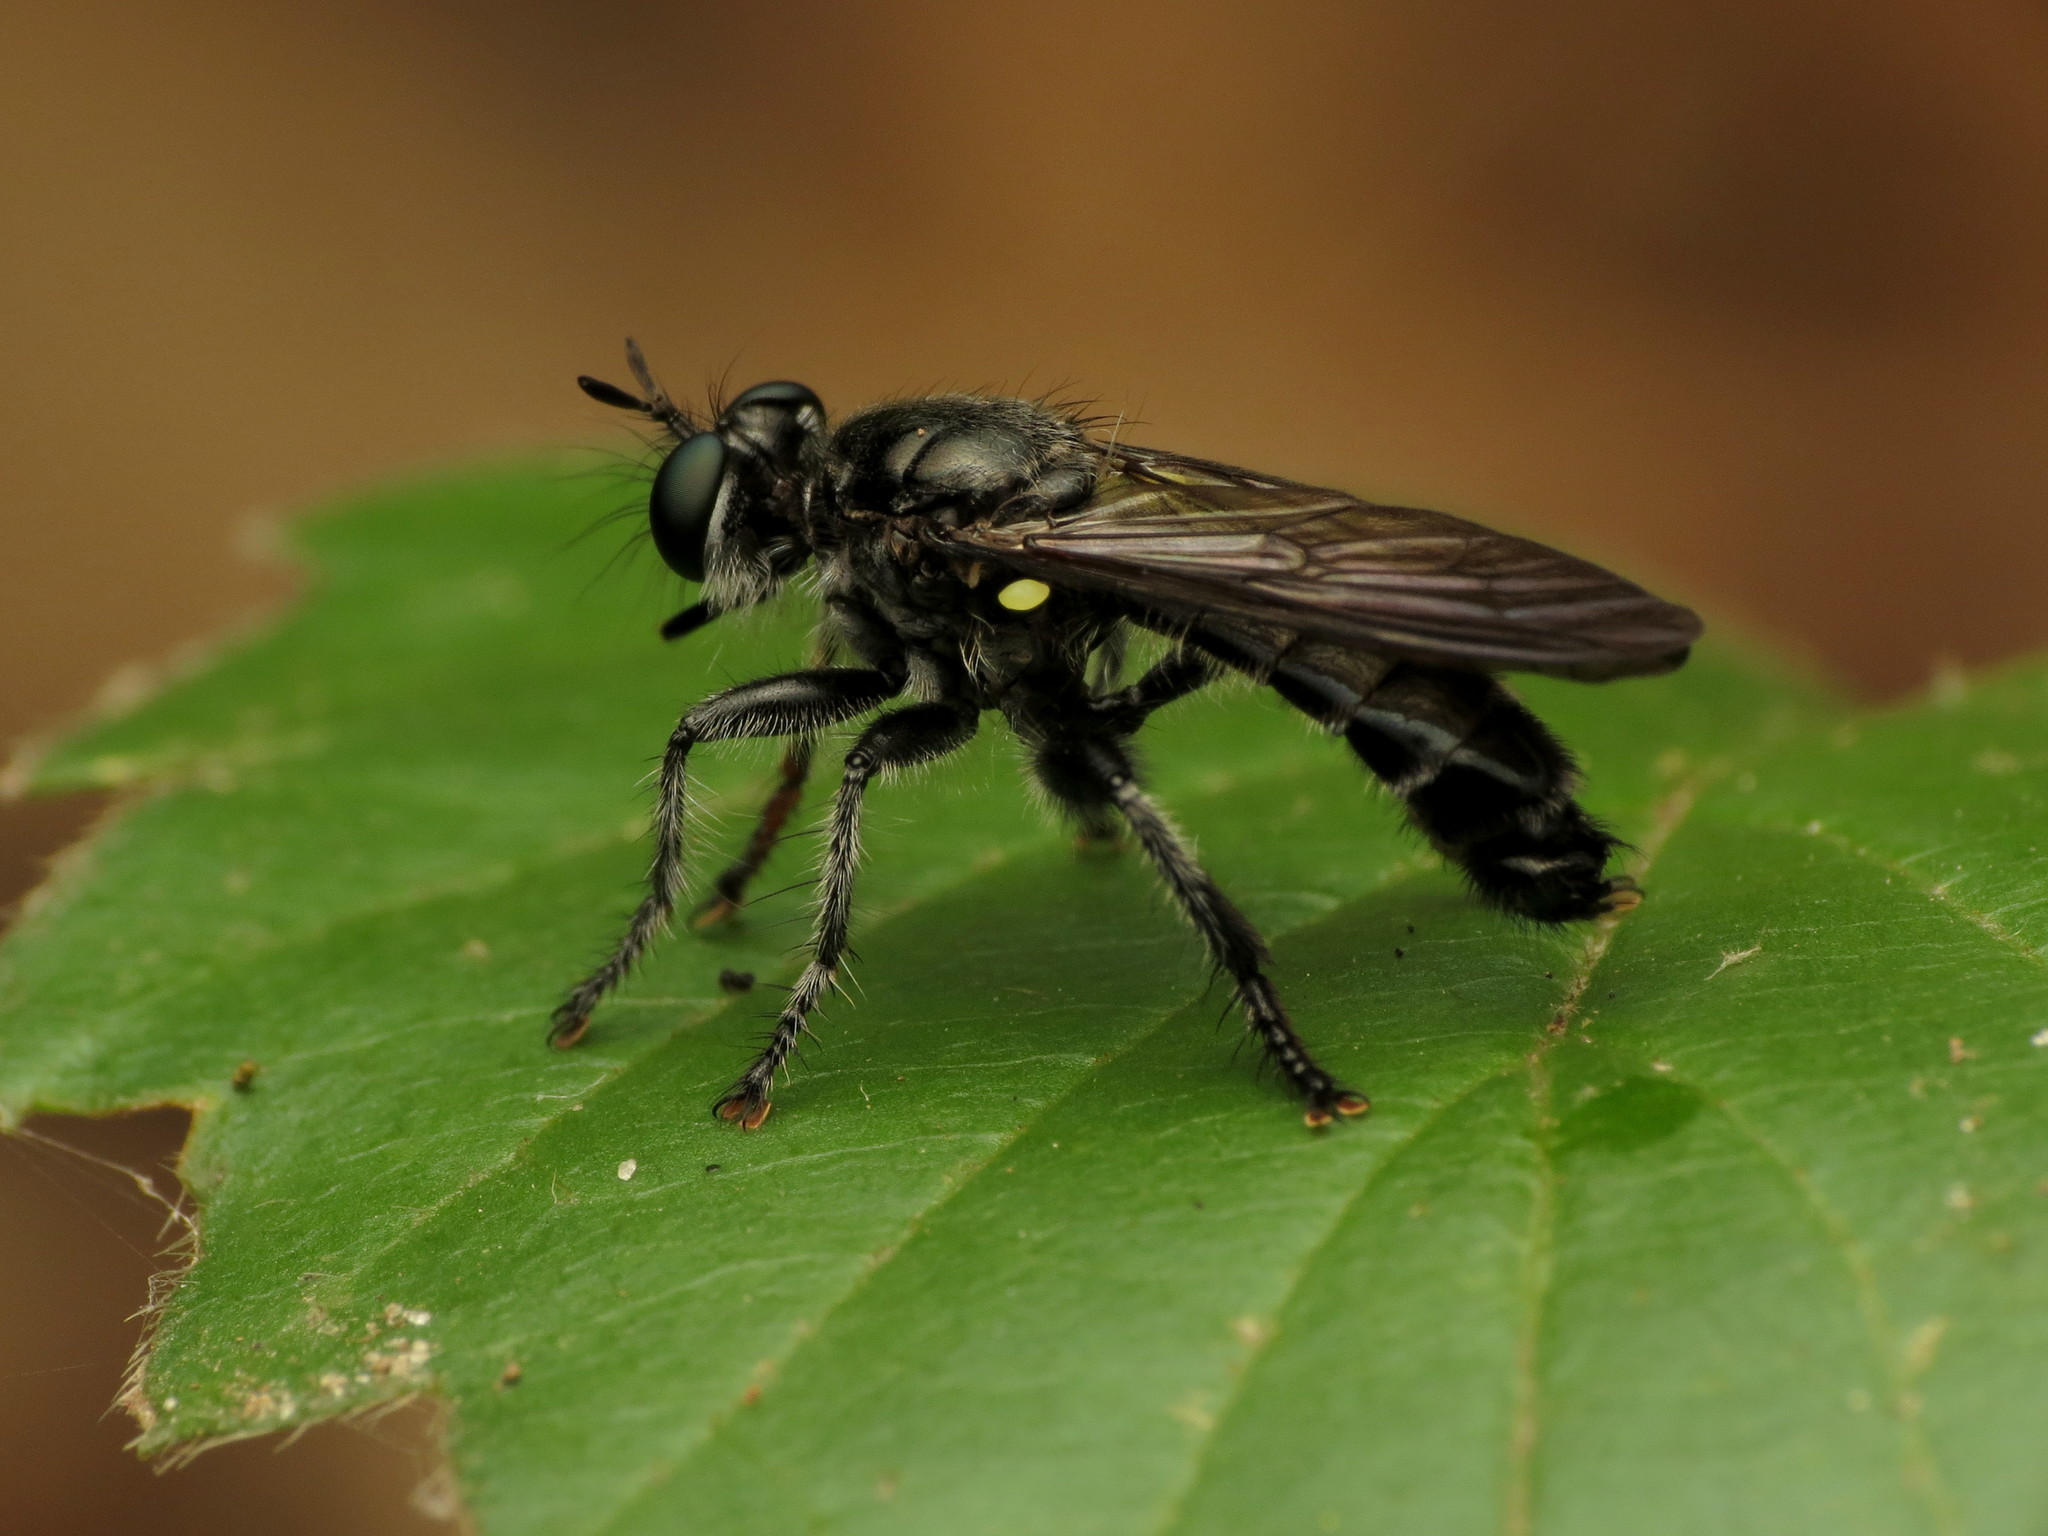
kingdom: Animalia
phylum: Arthropoda
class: Insecta
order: Diptera
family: Asilidae
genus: Laphria
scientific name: Laphria sicula
